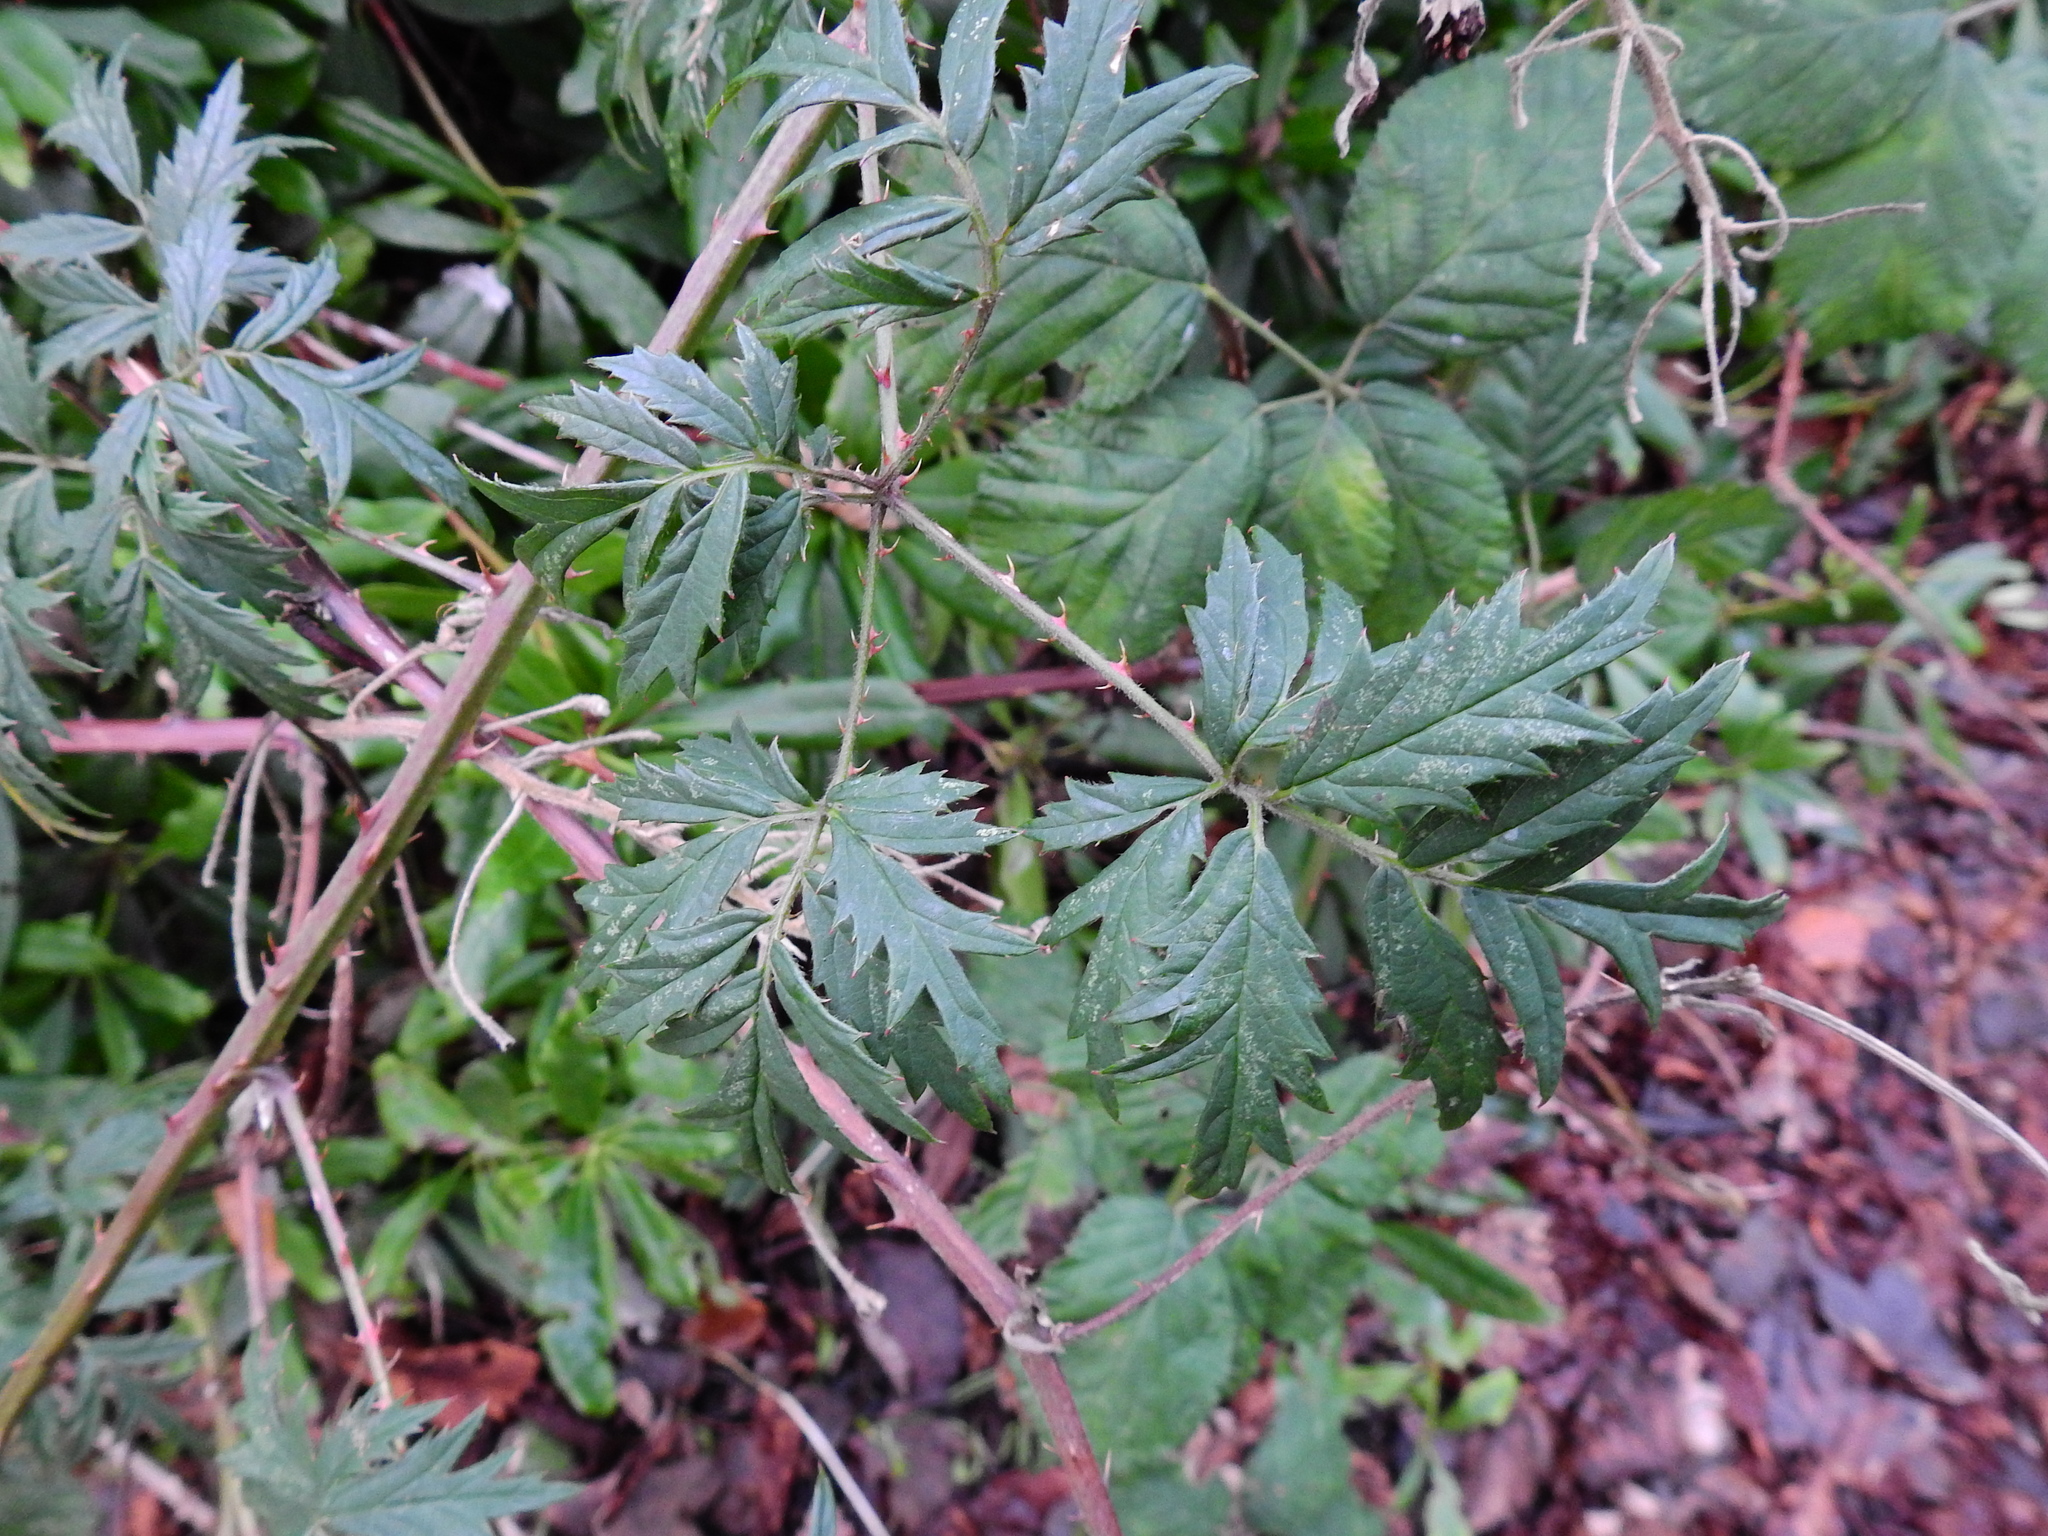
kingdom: Plantae
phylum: Tracheophyta
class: Magnoliopsida
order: Rosales
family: Rosaceae
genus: Rubus
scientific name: Rubus laciniatus
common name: Evergreen blackberry
